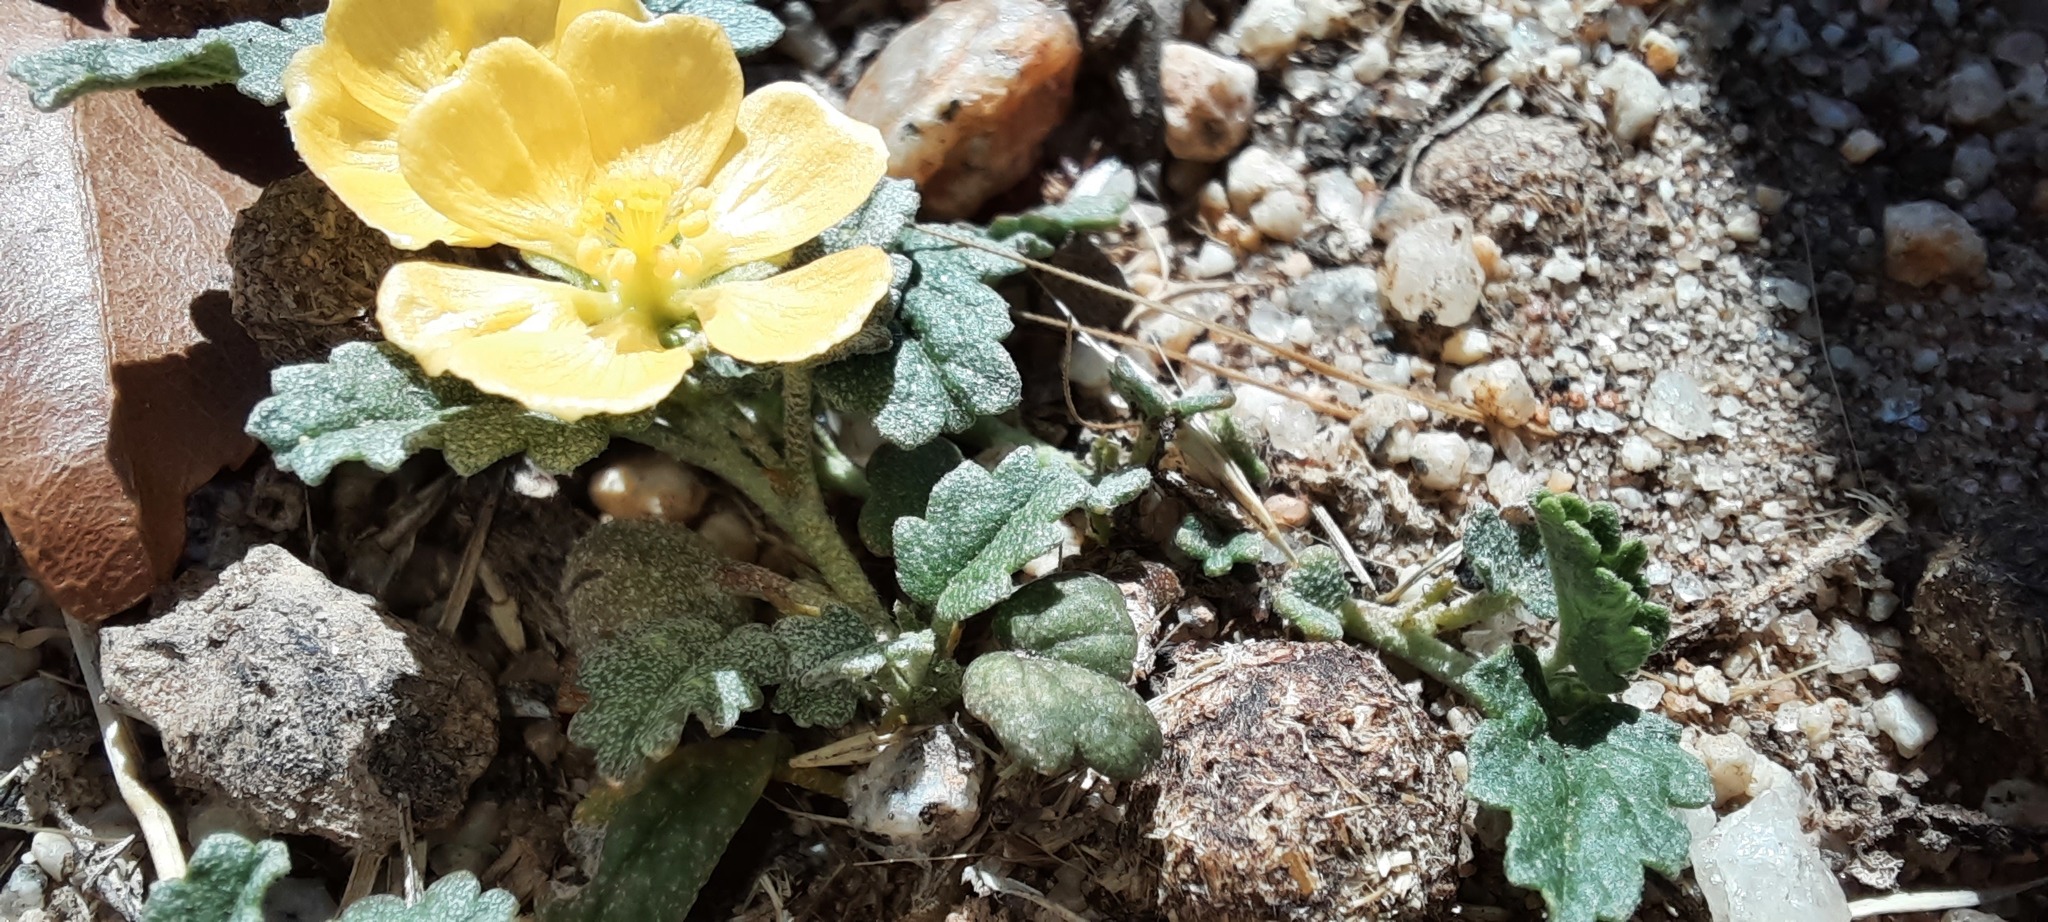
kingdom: Plantae
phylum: Tracheophyta
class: Magnoliopsida
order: Malvales
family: Malvaceae
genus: Sida
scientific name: Sida corrugata
